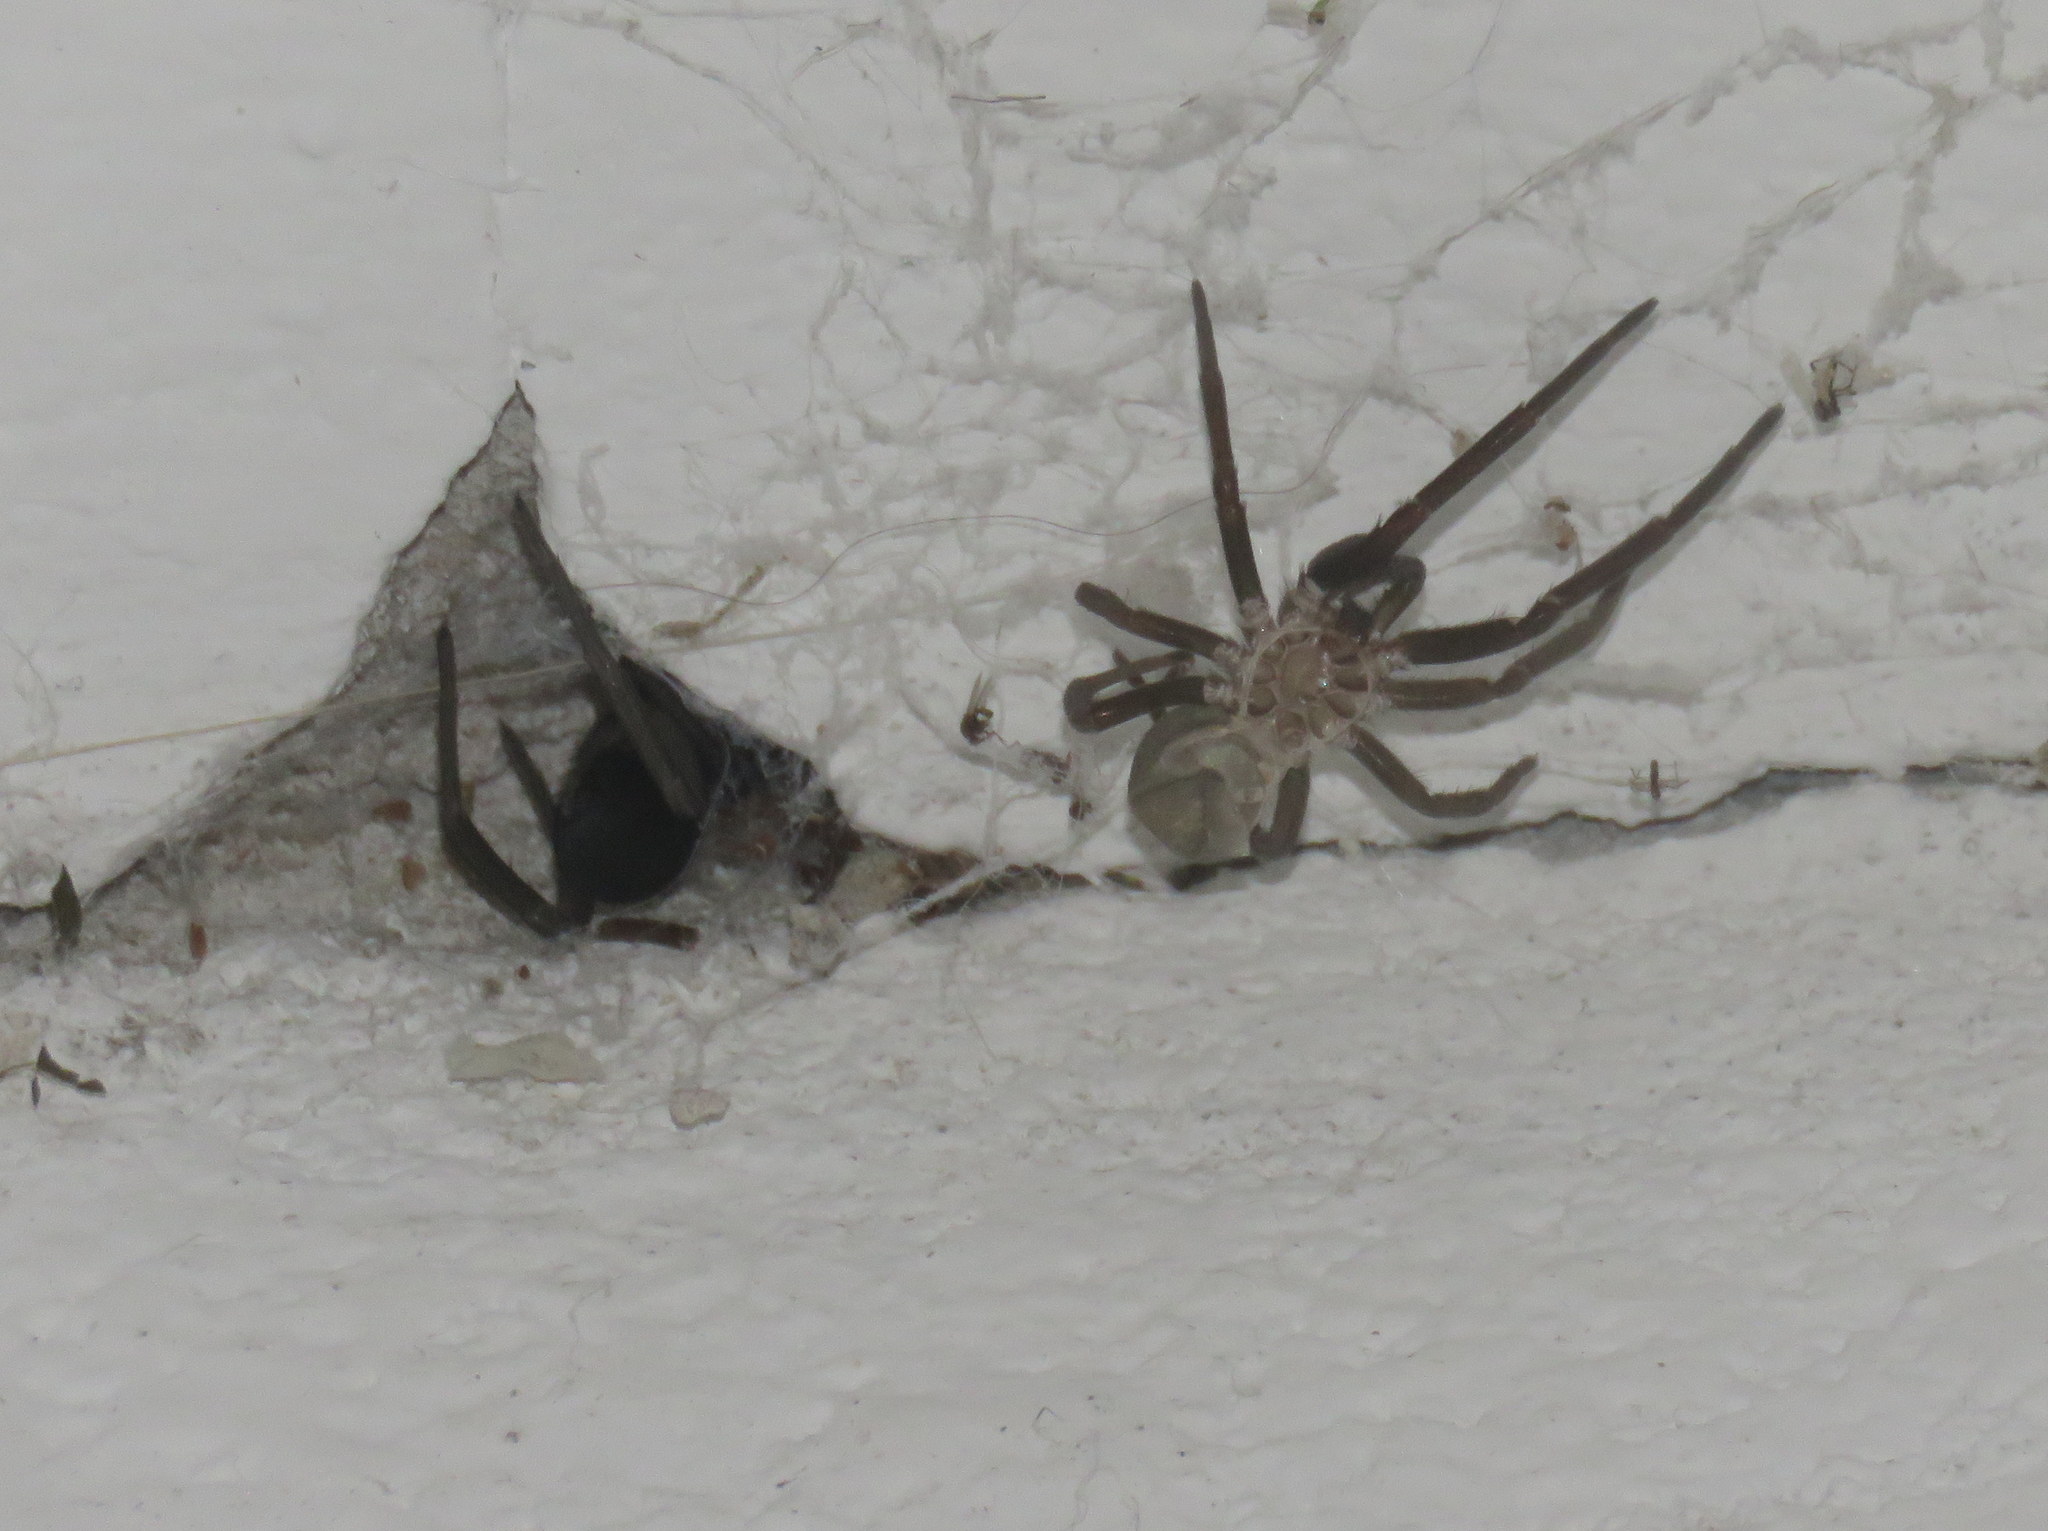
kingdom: Animalia
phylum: Arthropoda
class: Arachnida
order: Araneae
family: Filistatidae
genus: Kukulcania
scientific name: Kukulcania hibernalis
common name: Crevice weaver
